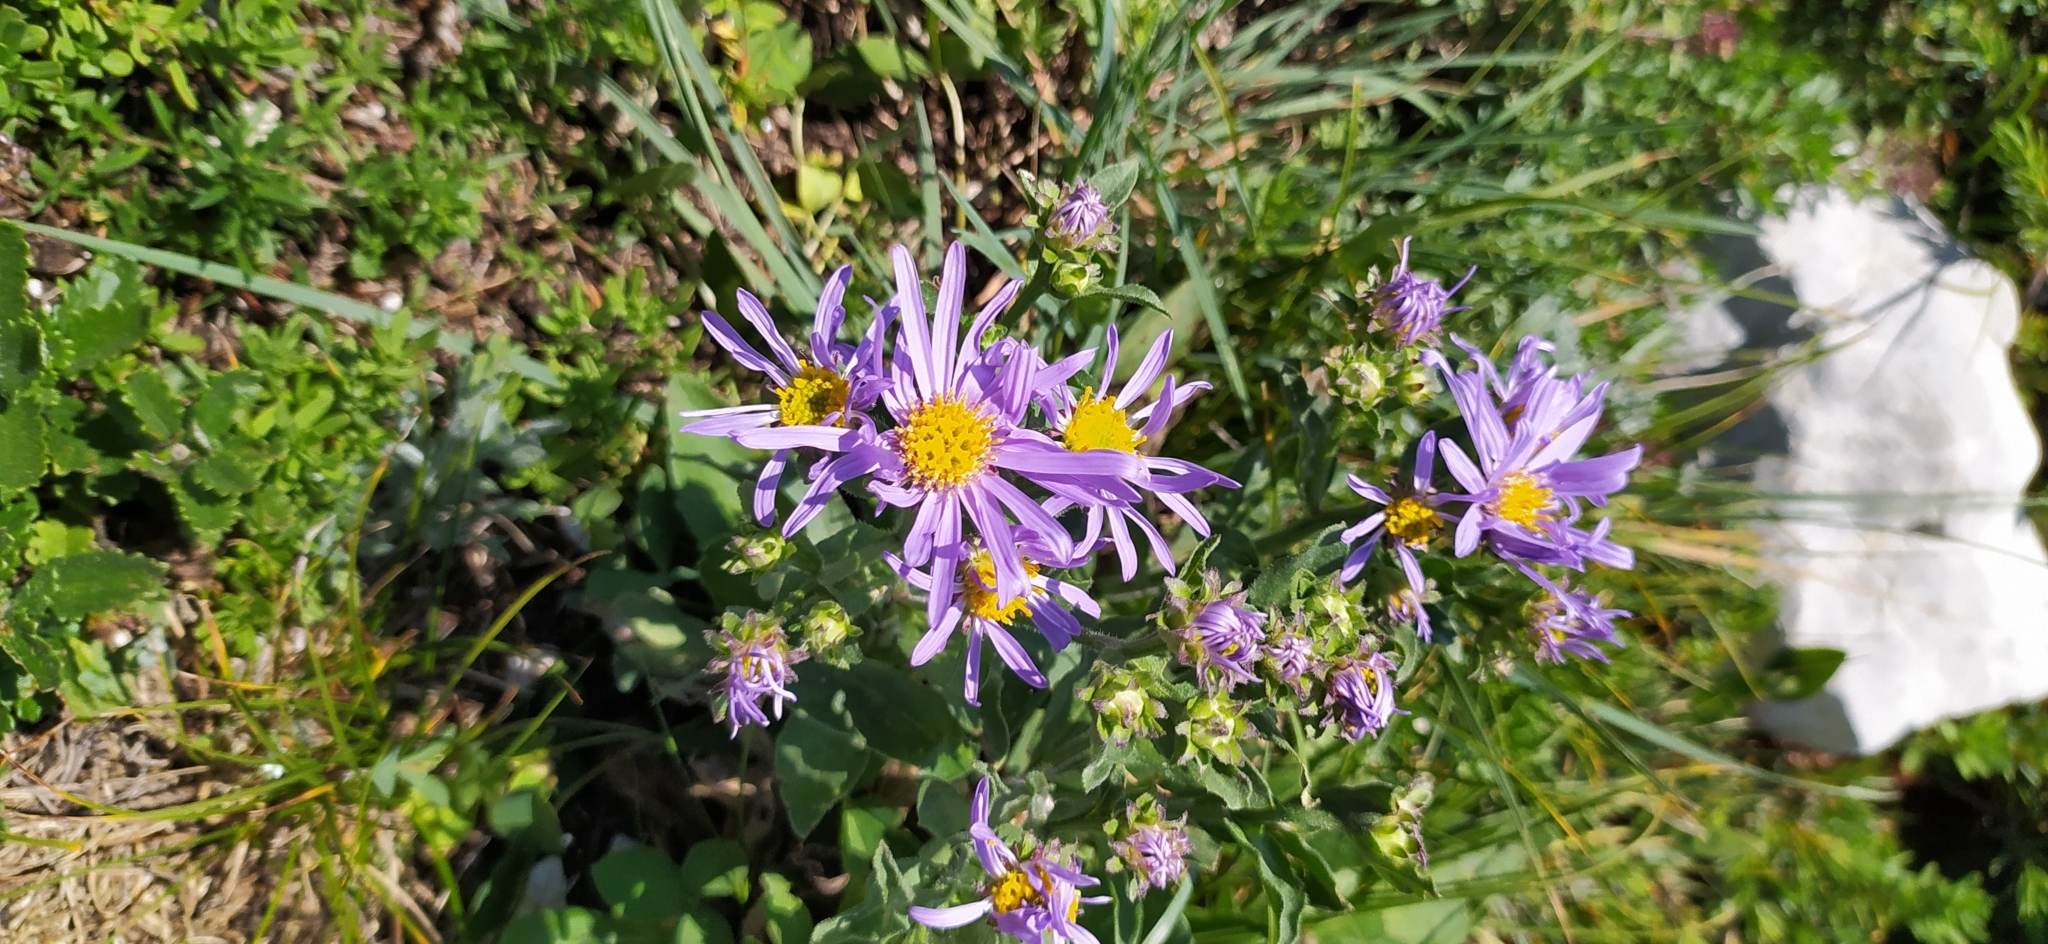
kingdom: Plantae
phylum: Tracheophyta
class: Magnoliopsida
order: Asterales
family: Asteraceae
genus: Aster
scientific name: Aster amellus
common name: European michaelmas daisy
